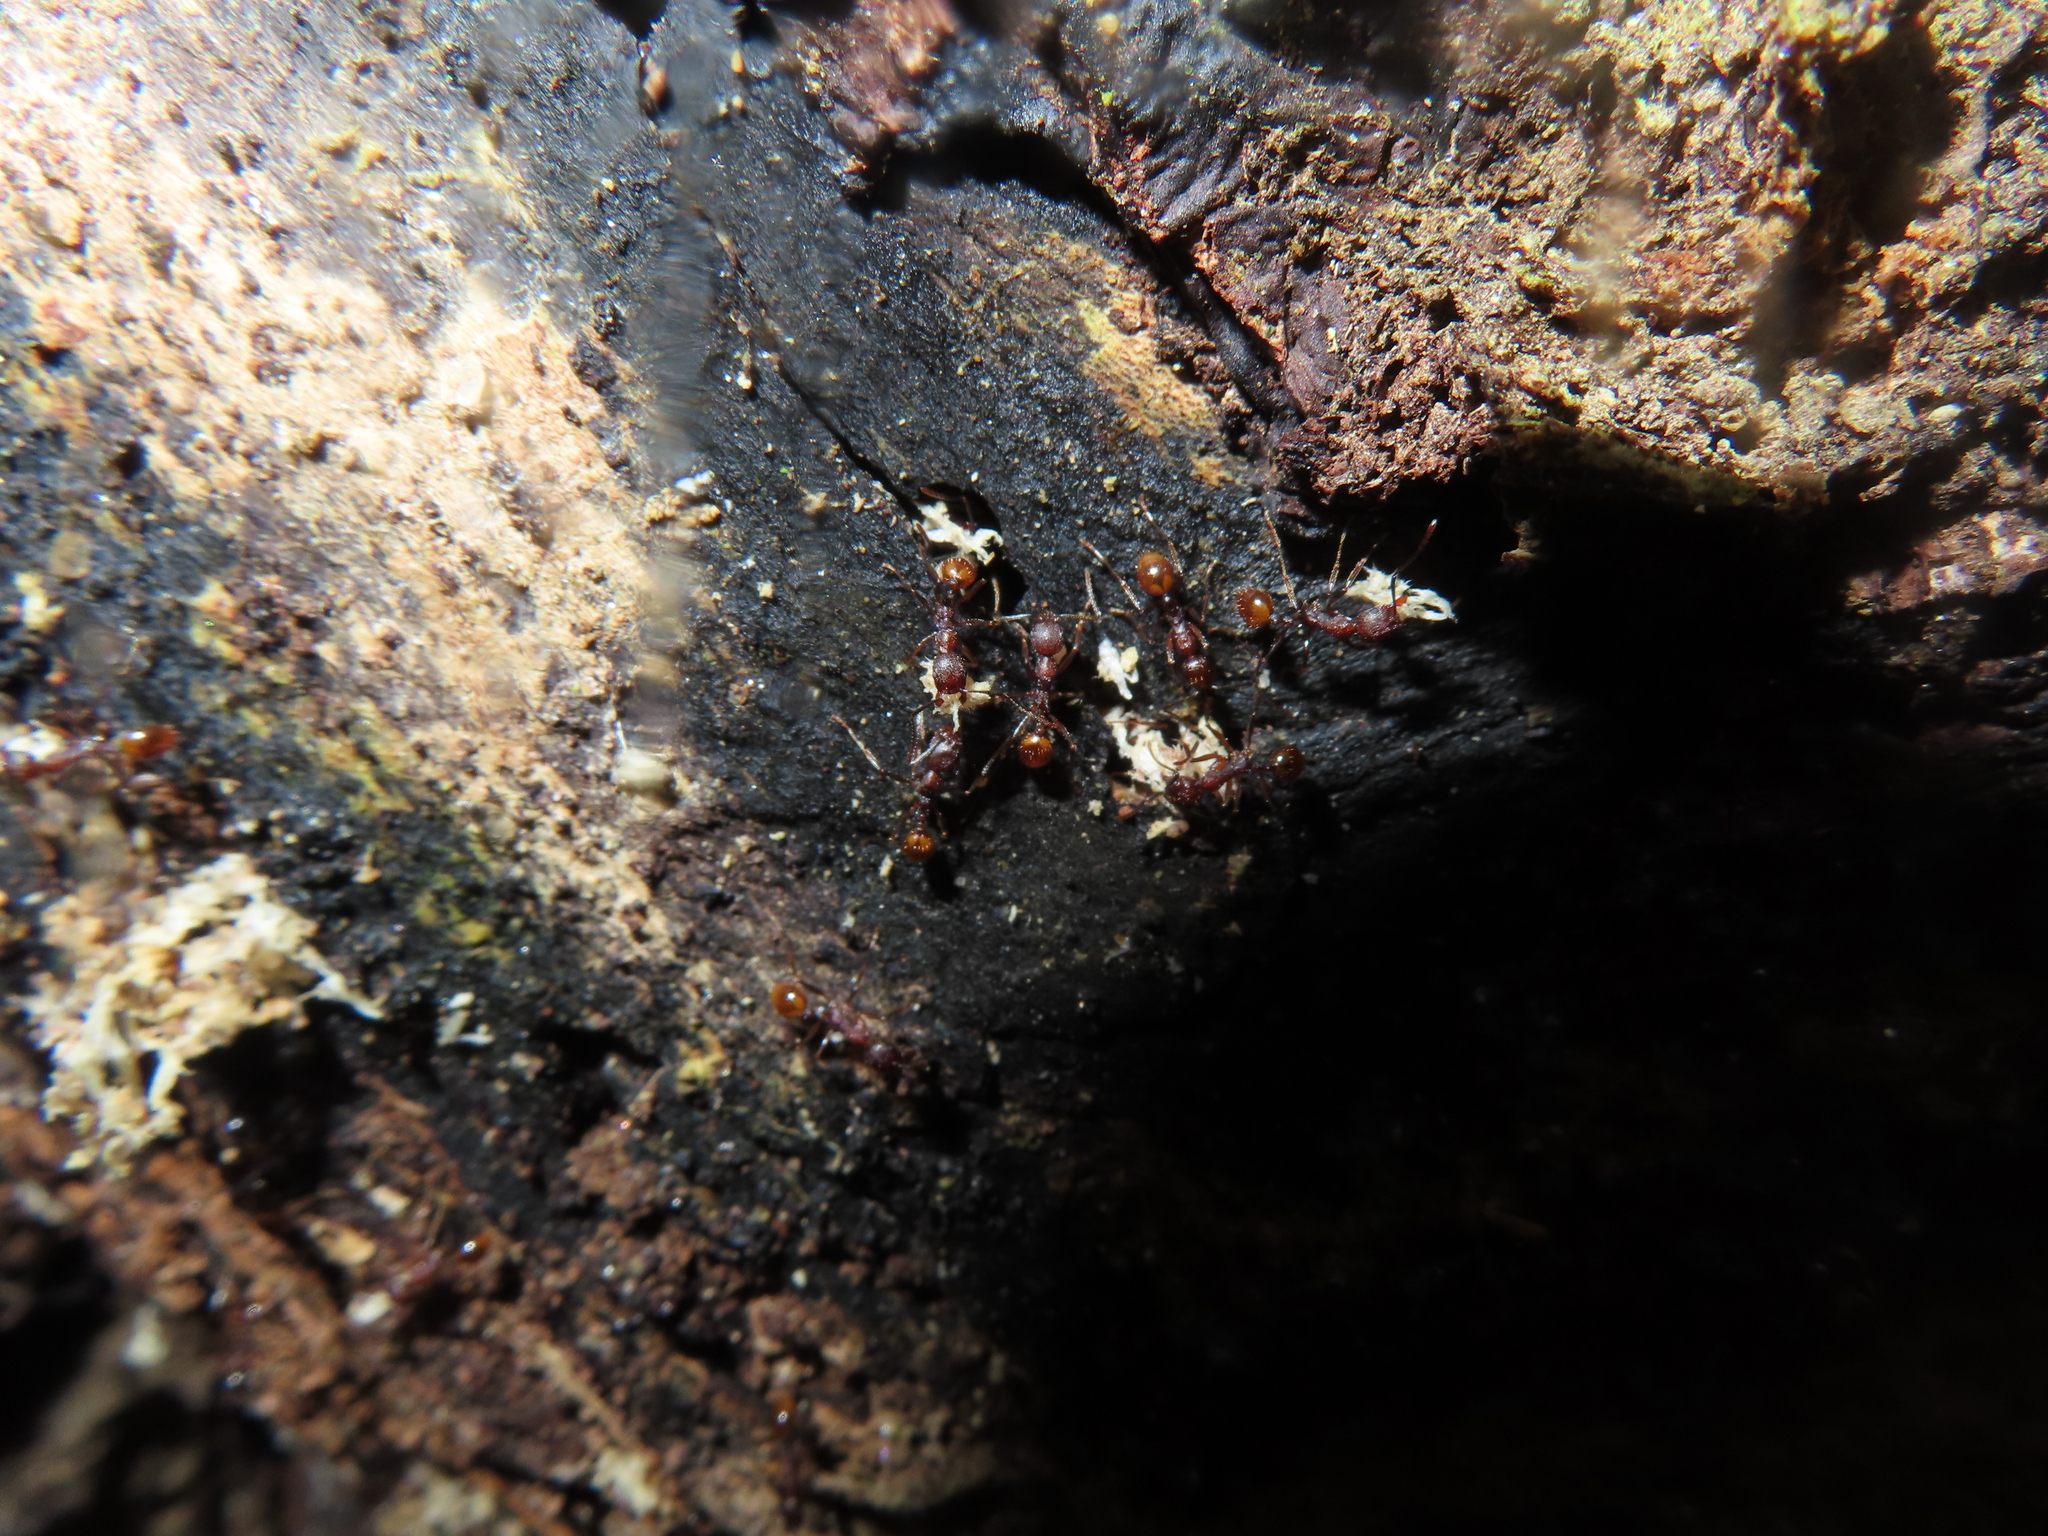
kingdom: Animalia
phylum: Arthropoda
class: Insecta
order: Hymenoptera
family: Formicidae
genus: Aphaenogaster
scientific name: Aphaenogaster fulva
